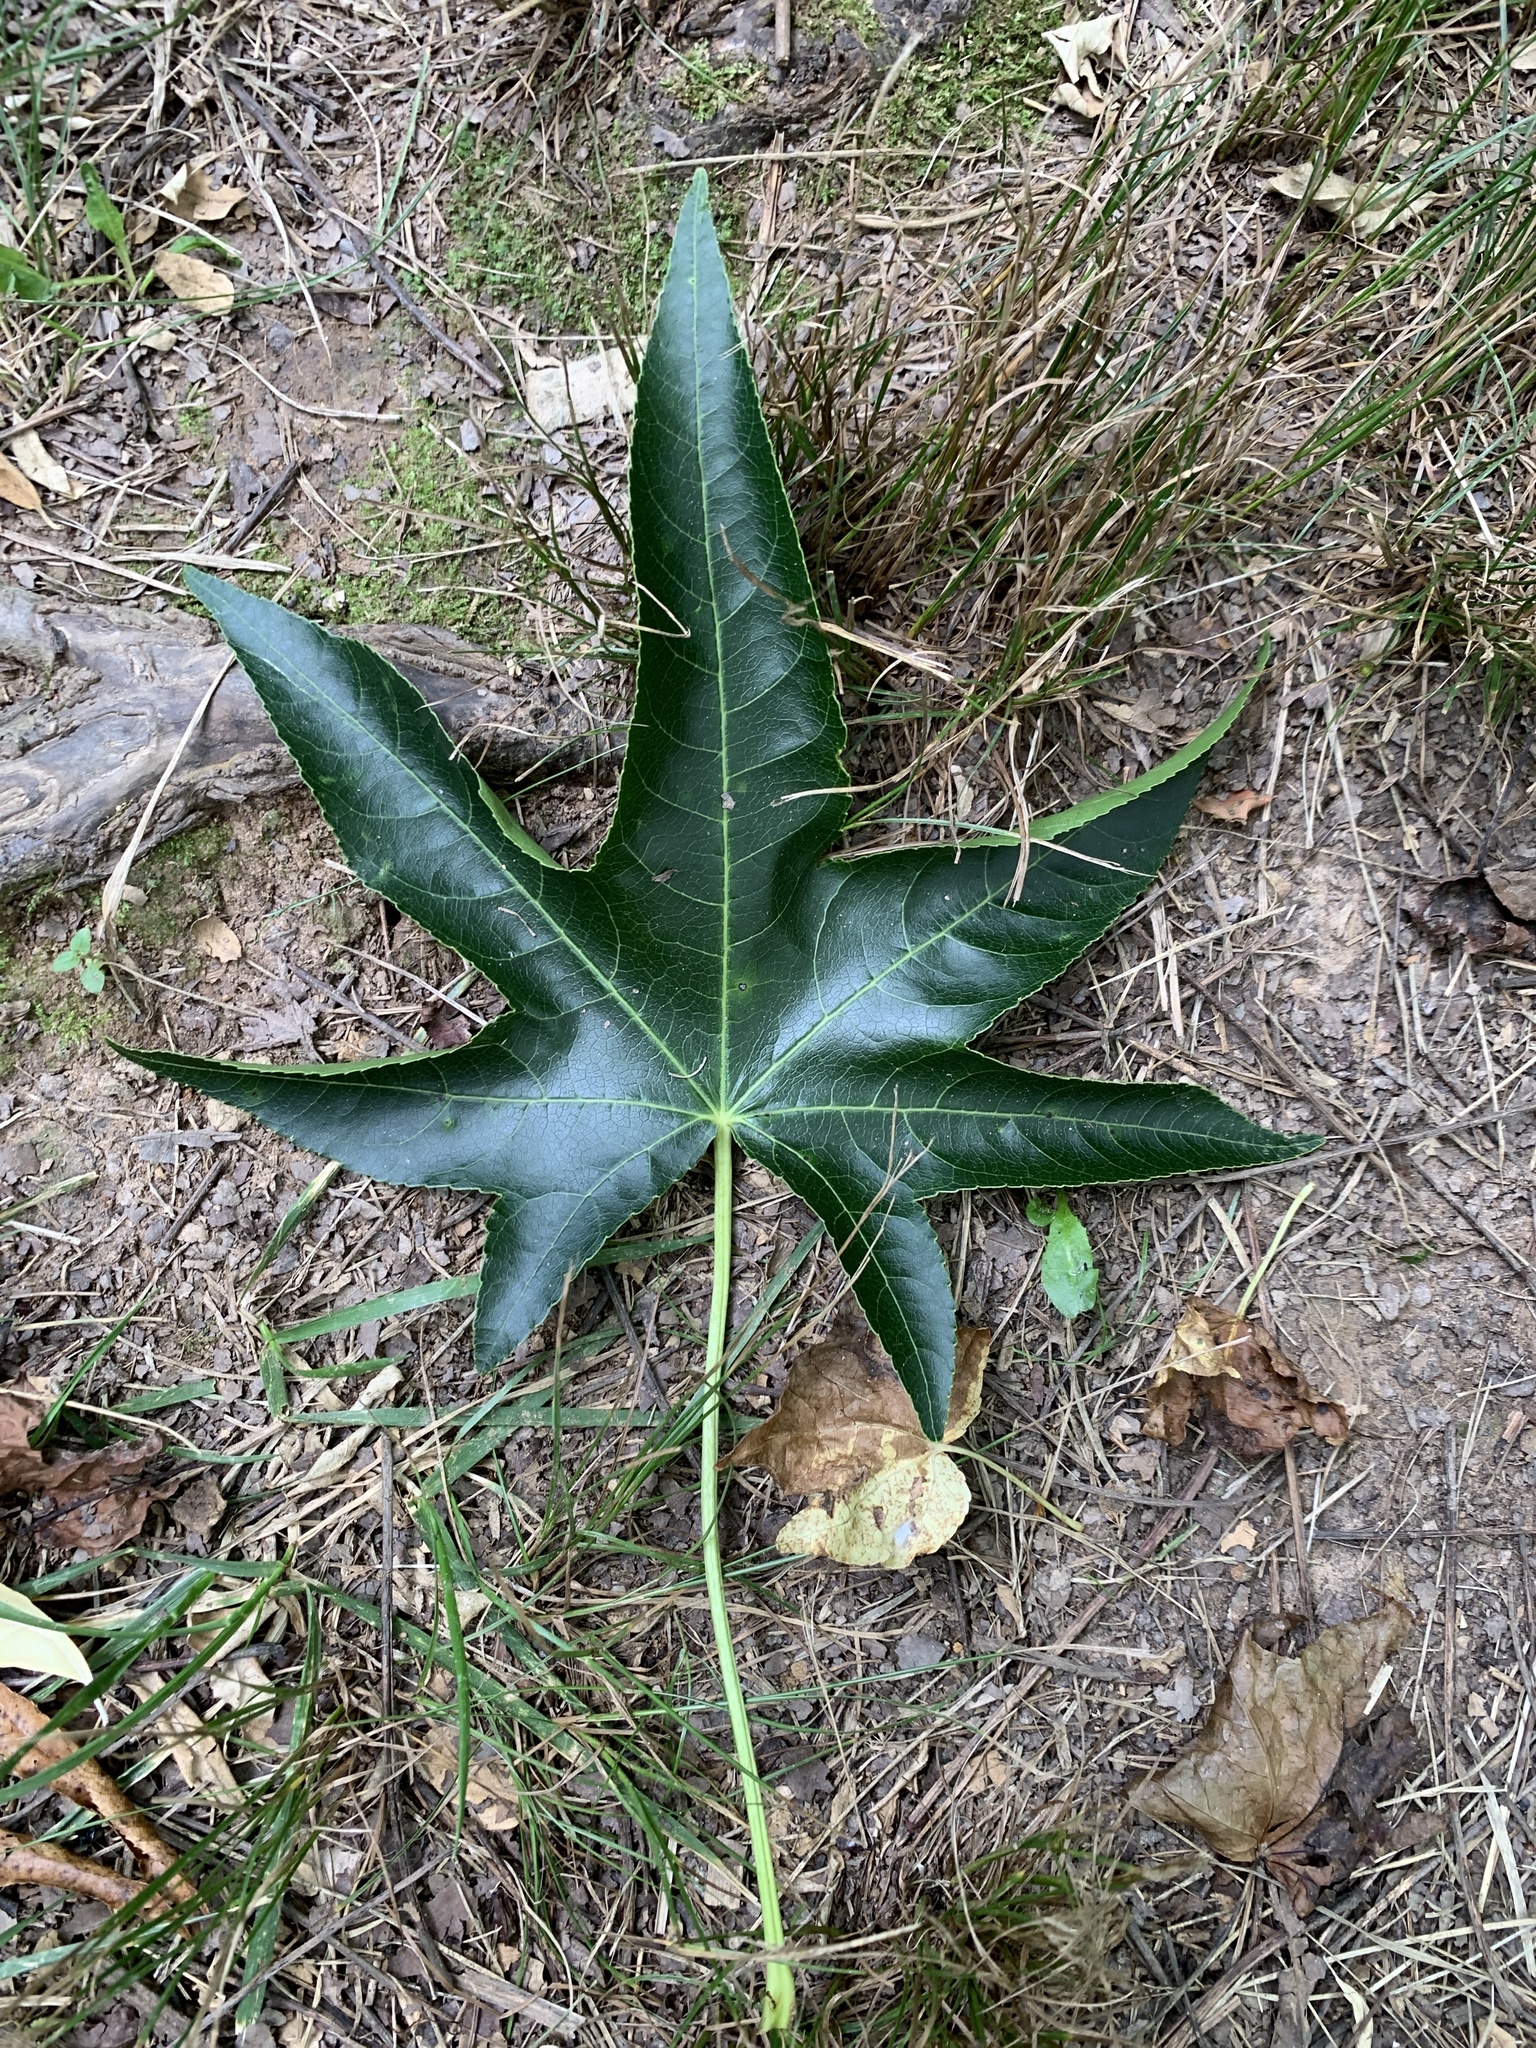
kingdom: Plantae
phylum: Tracheophyta
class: Magnoliopsida
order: Saxifragales
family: Altingiaceae
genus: Liquidambar
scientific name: Liquidambar styraciflua
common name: Sweet gum
